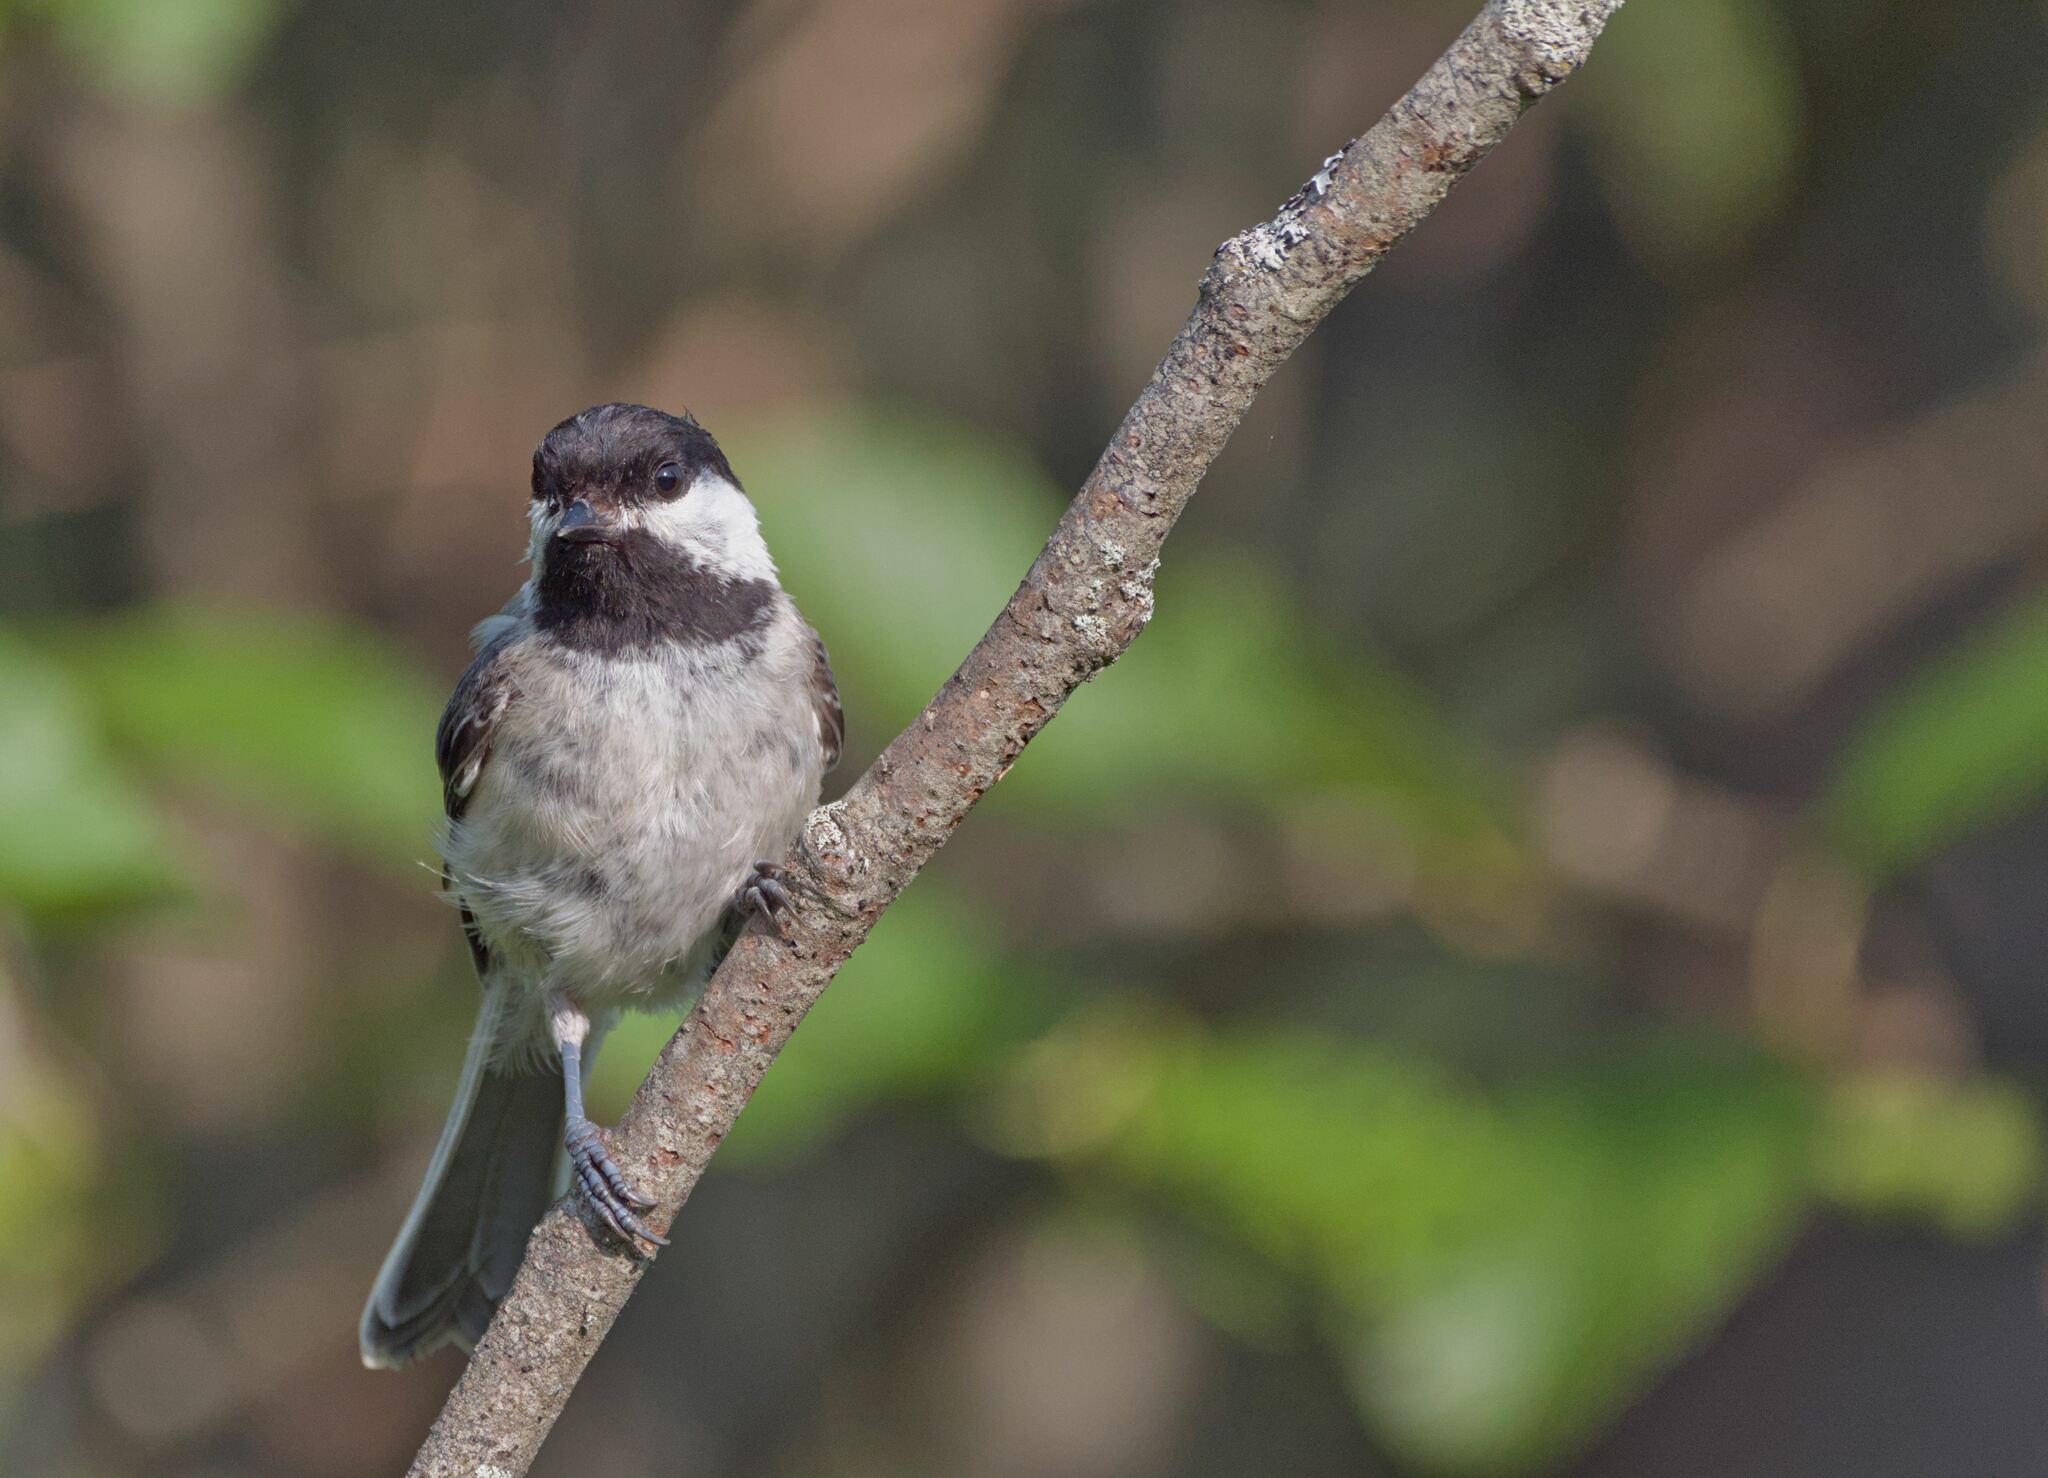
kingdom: Animalia
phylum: Chordata
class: Aves
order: Passeriformes
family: Paridae
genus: Poecile
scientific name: Poecile atricapillus
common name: Black-capped chickadee
